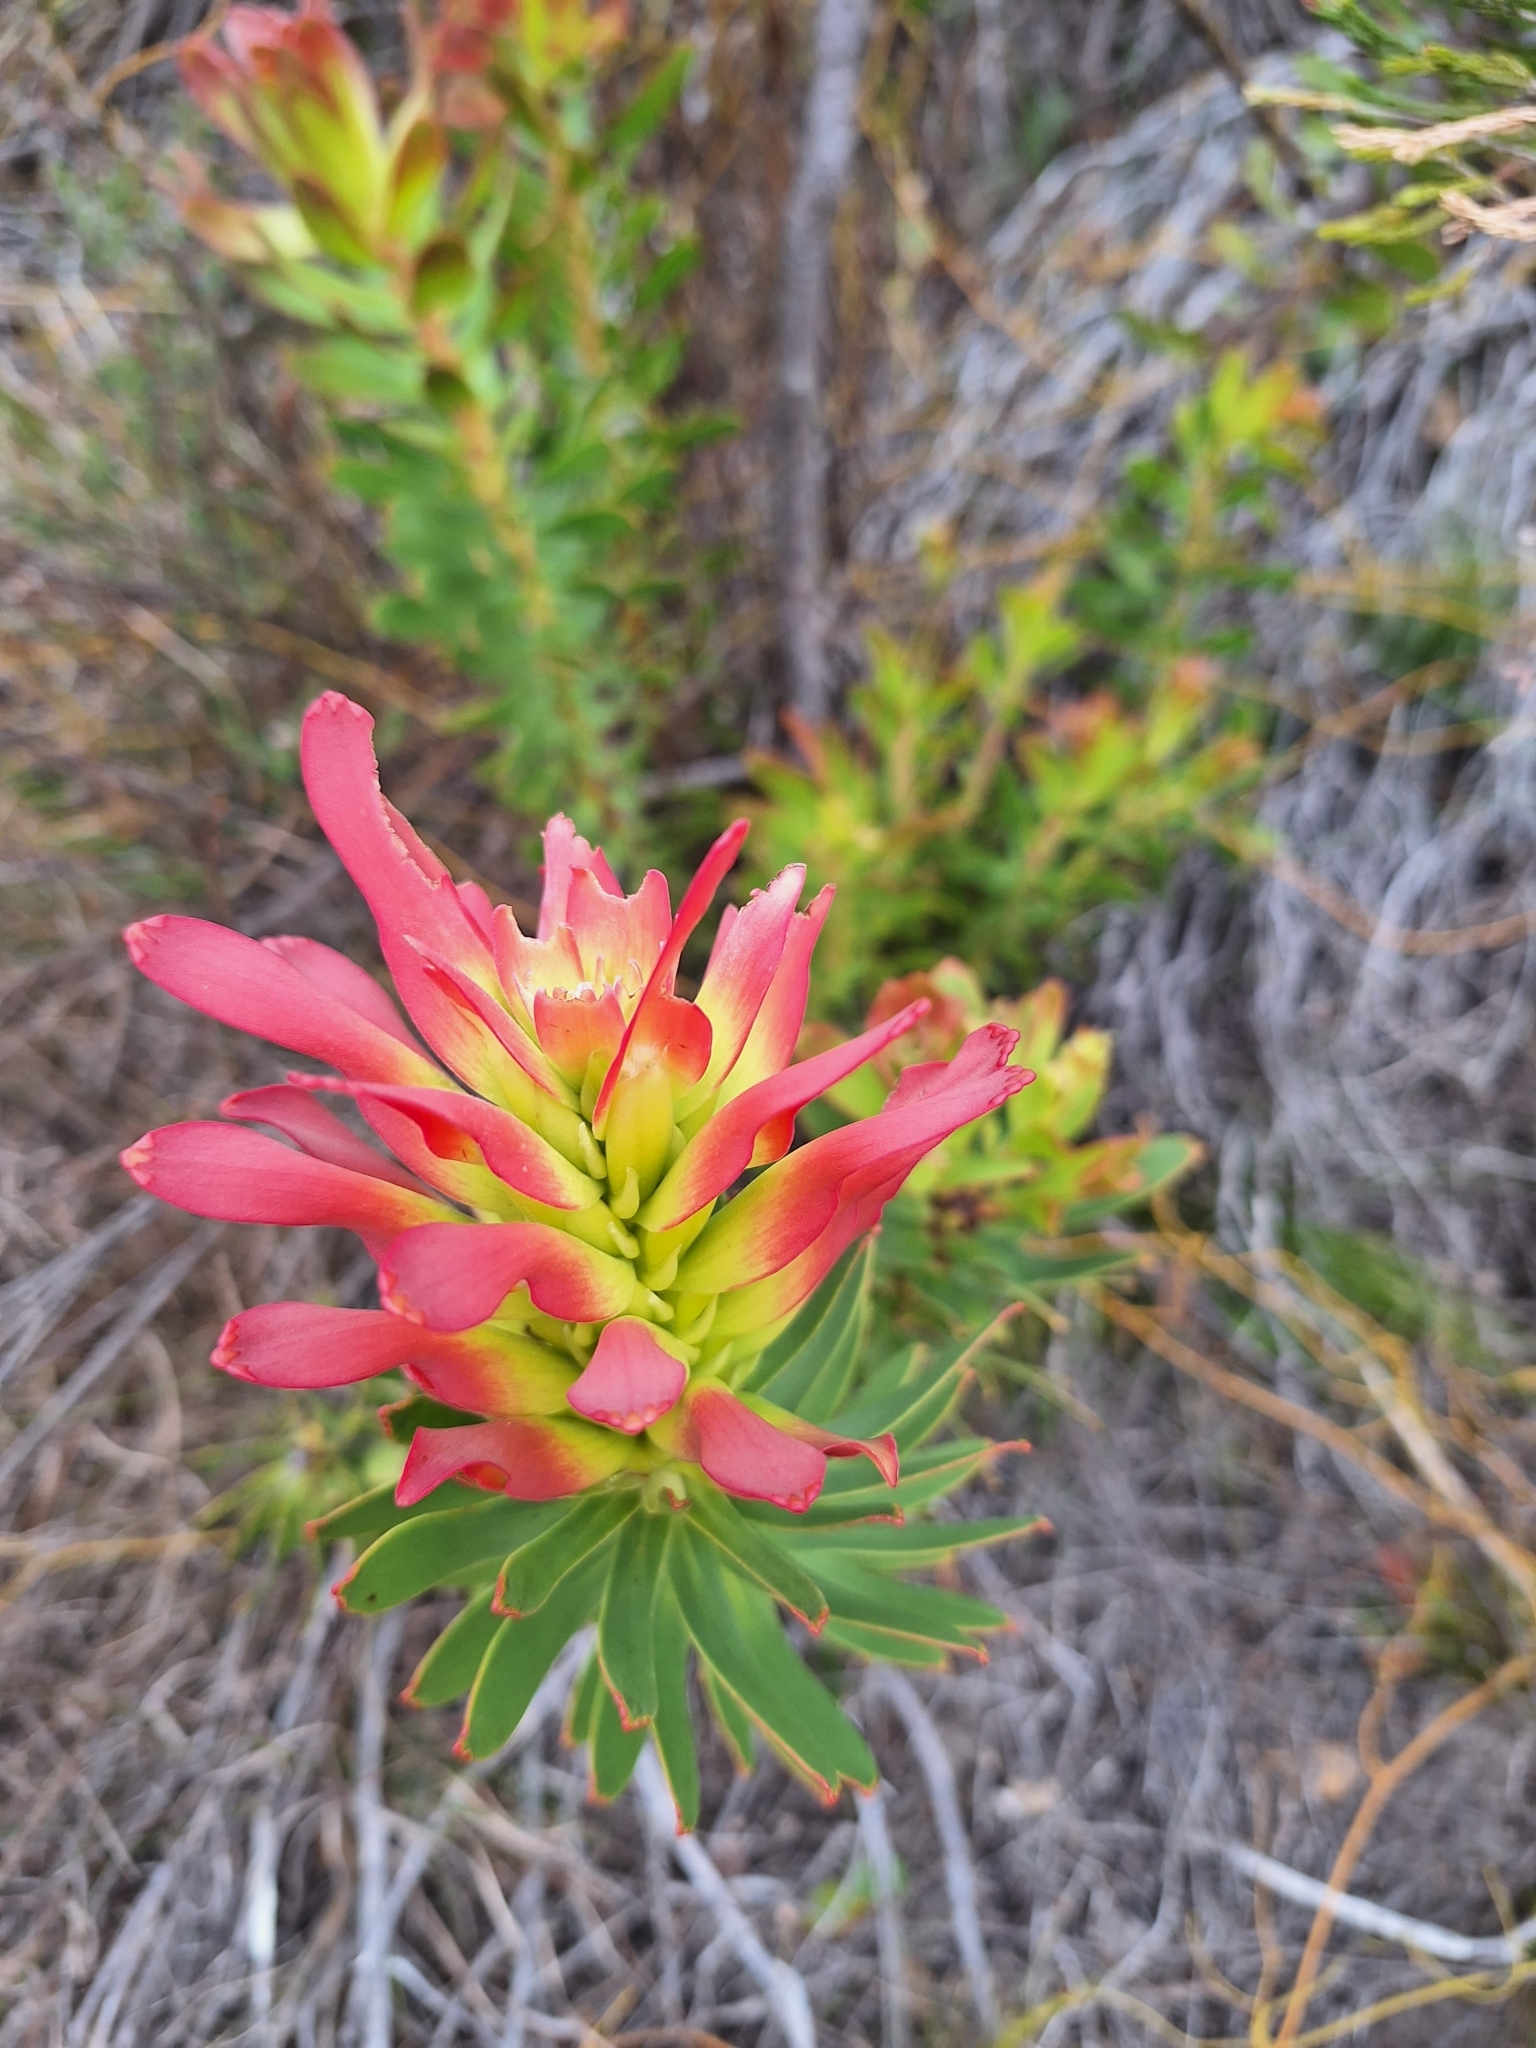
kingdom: Plantae
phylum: Tracheophyta
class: Magnoliopsida
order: Proteales
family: Proteaceae
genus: Mimetes
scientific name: Mimetes cucullatus
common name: Common pagoda
